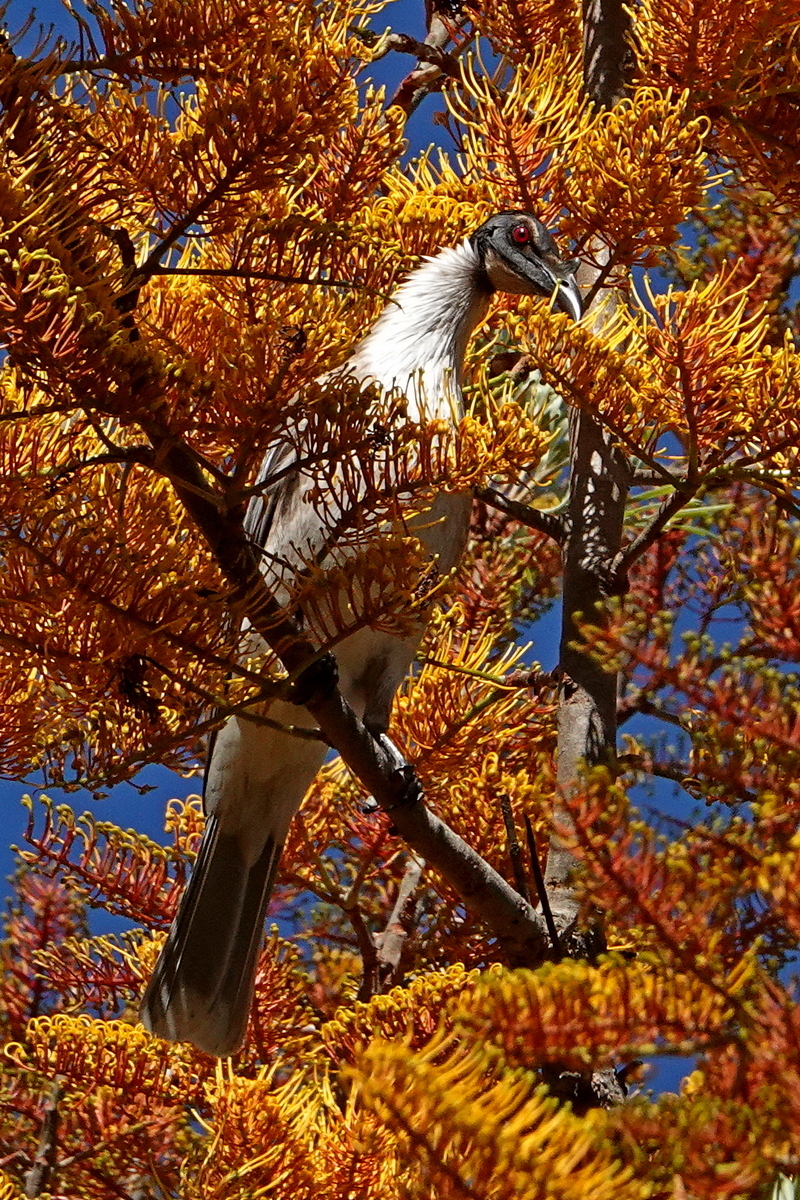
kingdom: Animalia
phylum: Chordata
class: Aves
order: Passeriformes
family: Meliphagidae
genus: Philemon
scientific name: Philemon corniculatus
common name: Noisy friarbird
